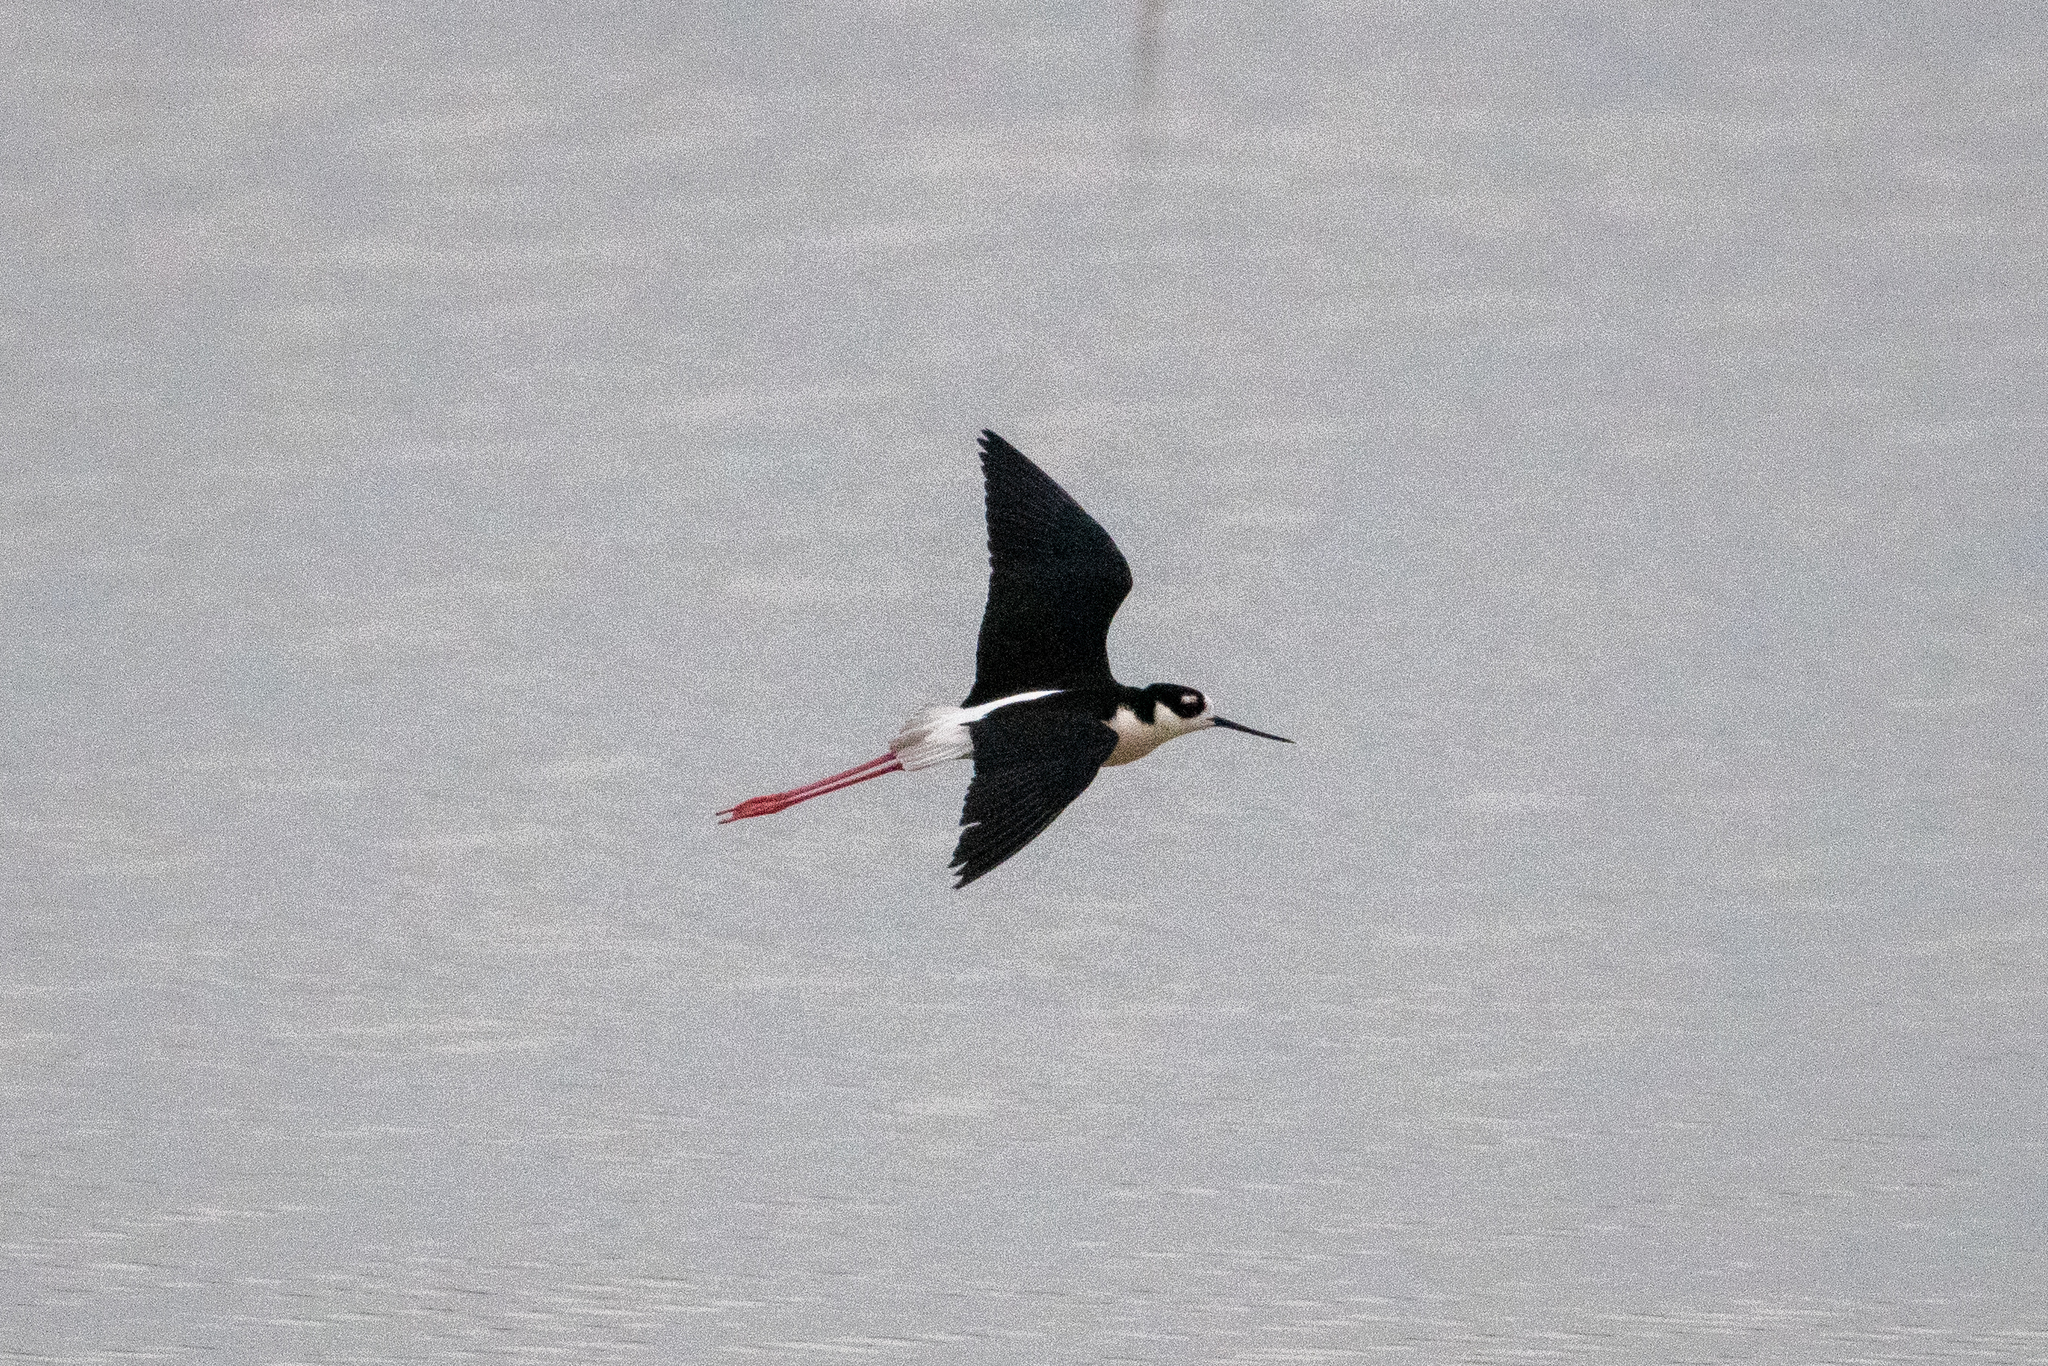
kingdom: Animalia
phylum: Chordata
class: Aves
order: Charadriiformes
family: Recurvirostridae
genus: Himantopus
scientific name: Himantopus mexicanus
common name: Black-necked stilt
